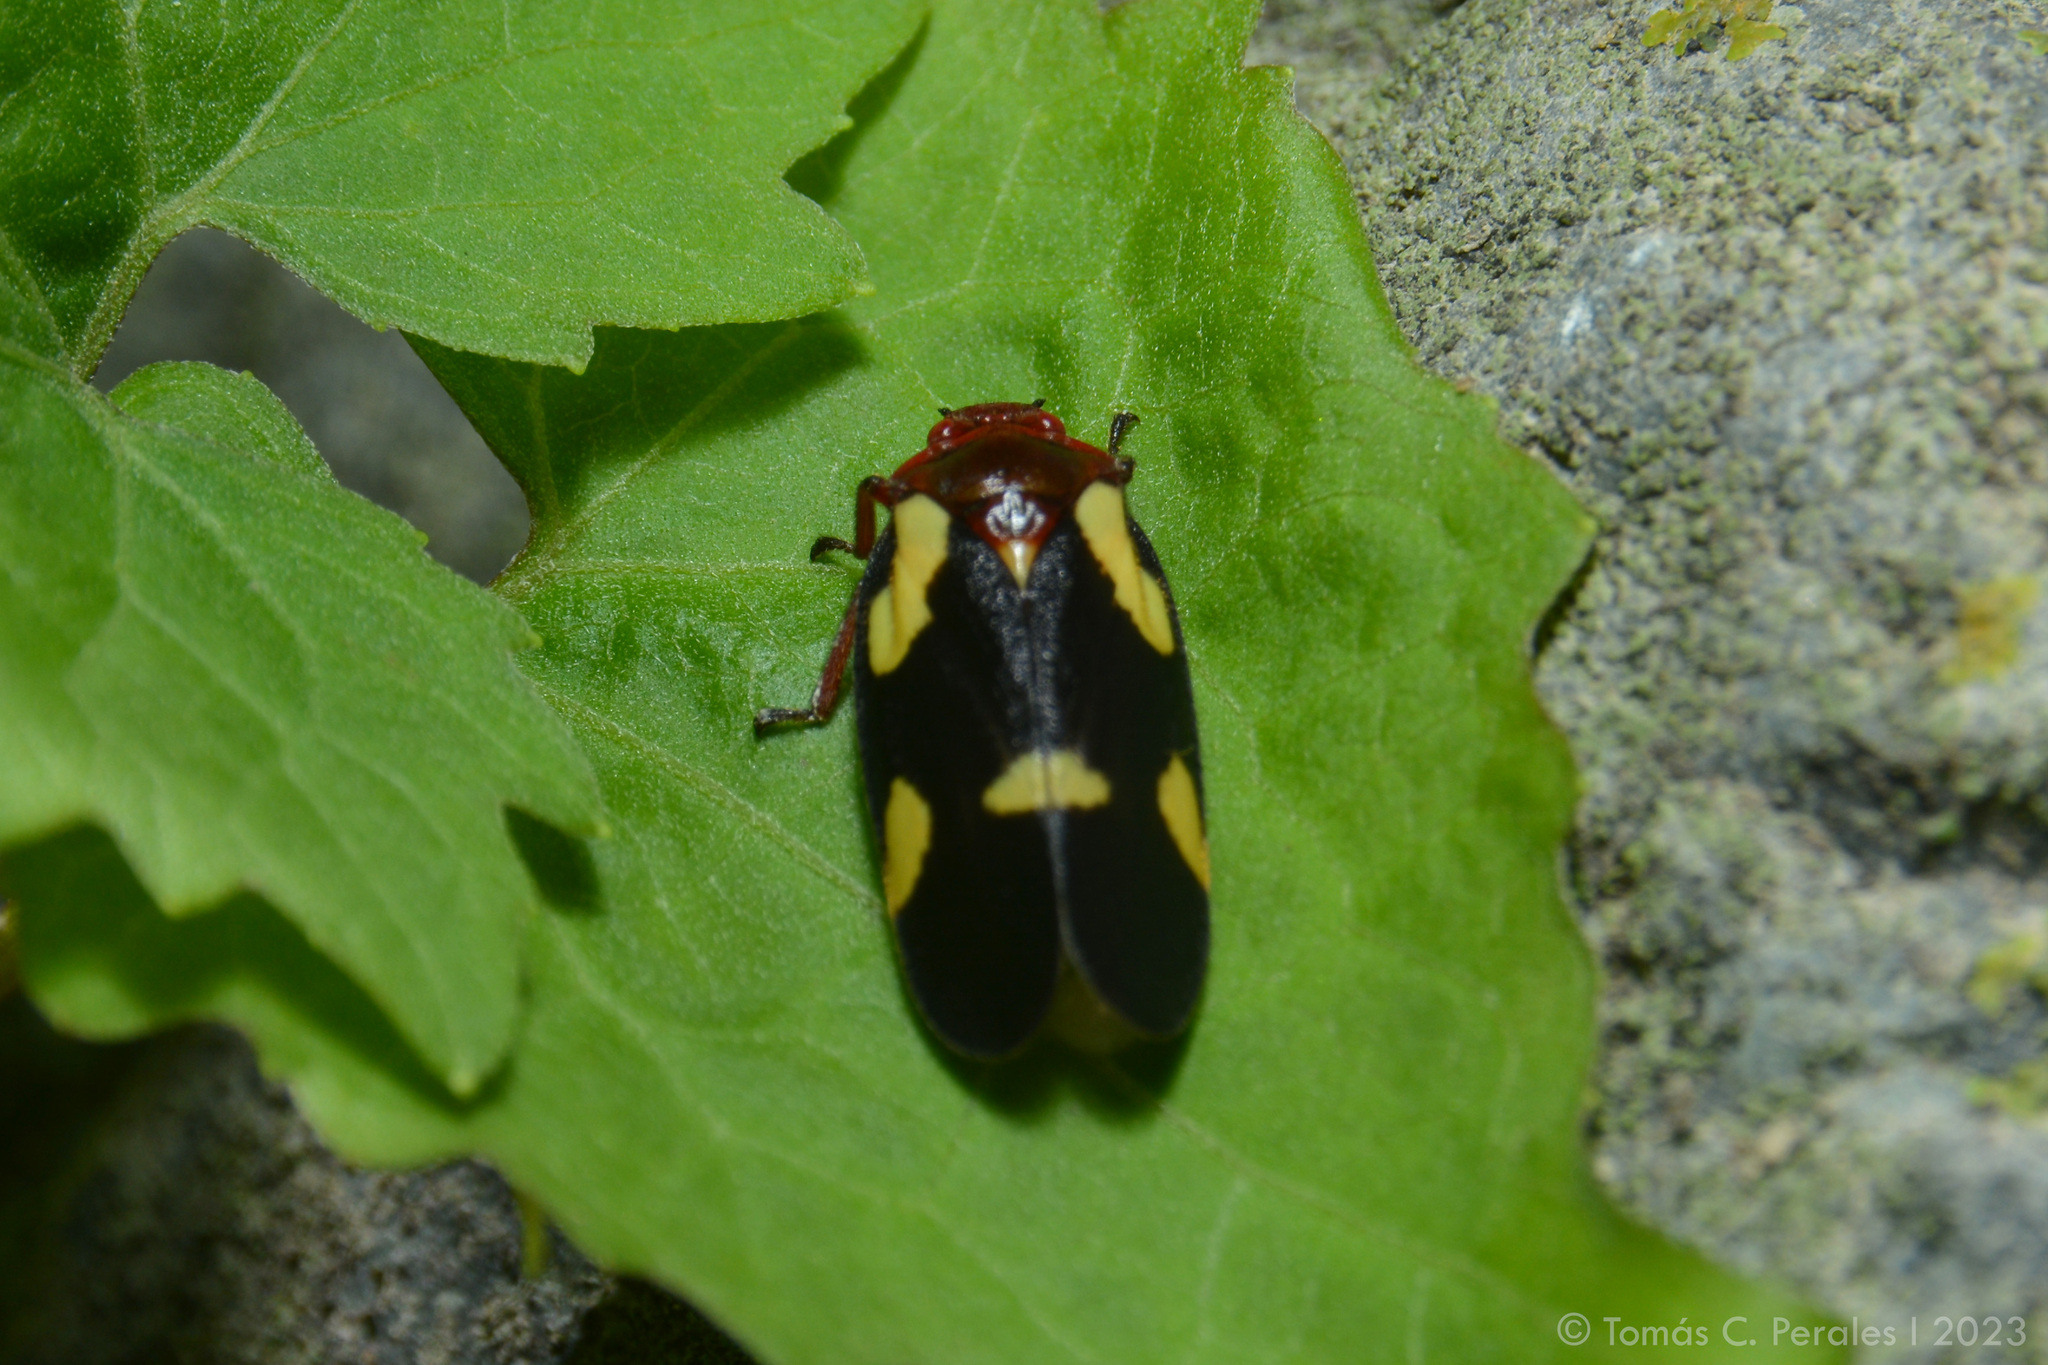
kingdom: Animalia
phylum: Arthropoda
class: Insecta
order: Hemiptera
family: Cercopidae
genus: Sphenorhina
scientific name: Sphenorhina limbata
